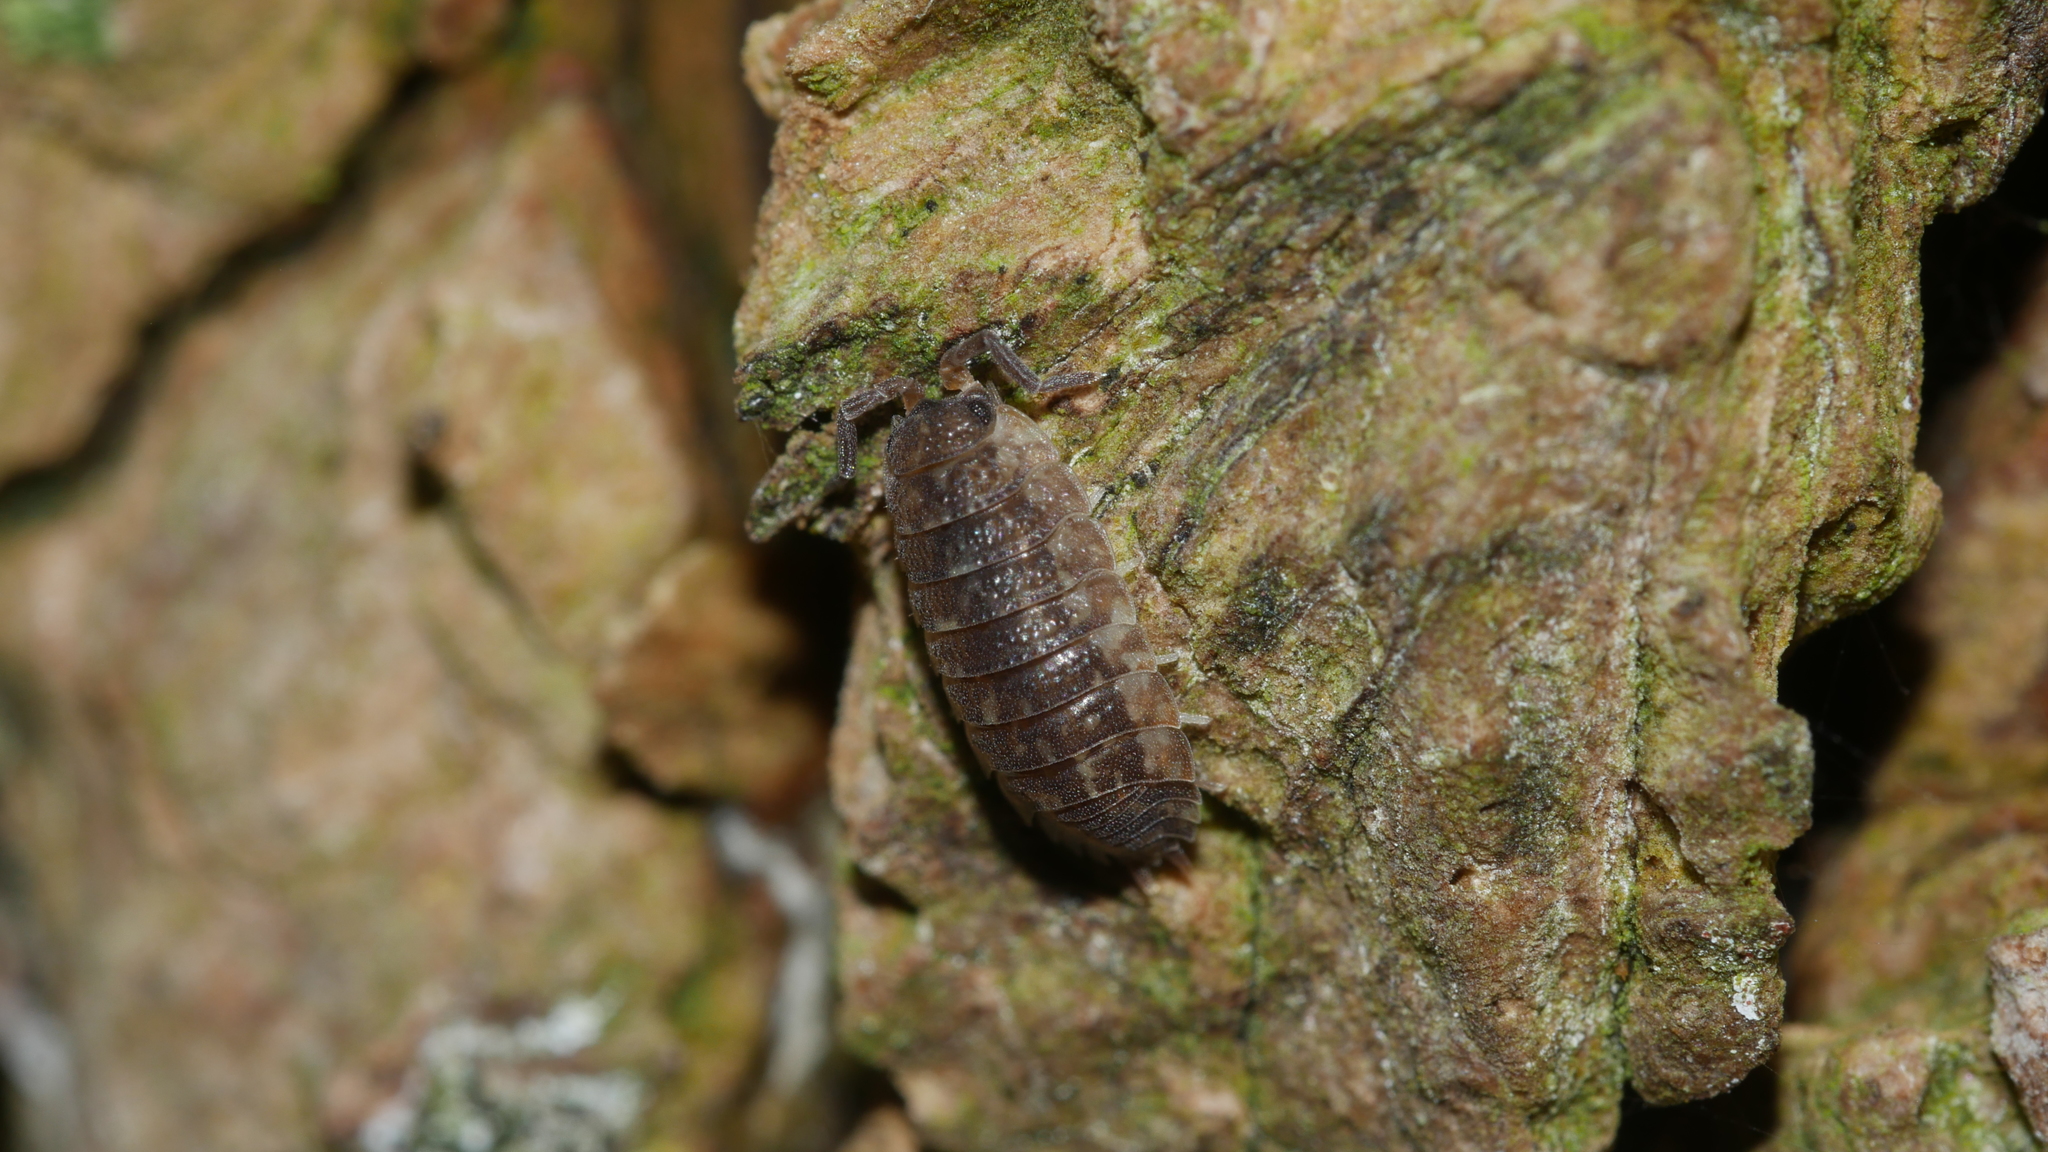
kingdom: Animalia
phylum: Arthropoda
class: Malacostraca
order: Isopoda
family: Porcellionidae
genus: Porcellio
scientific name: Porcellio scaber
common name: Common rough woodlouse
